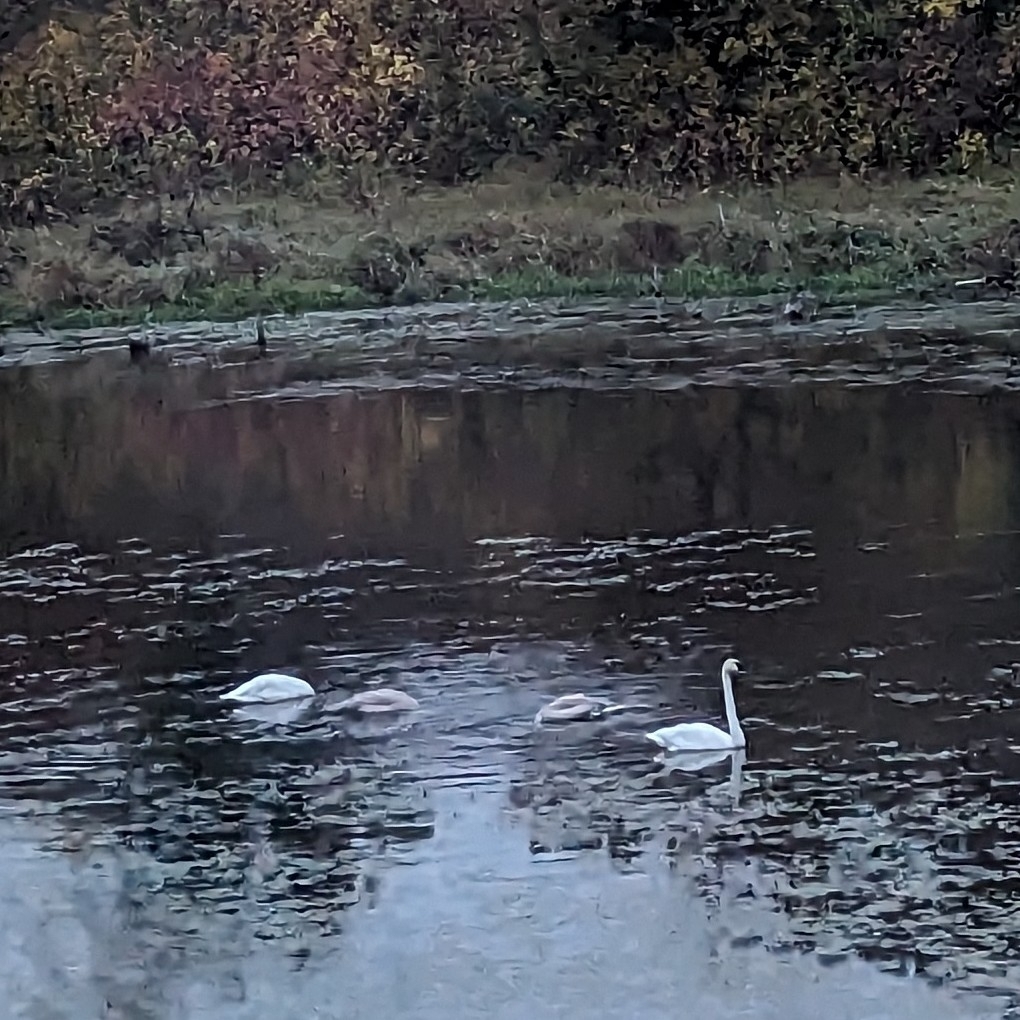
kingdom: Animalia
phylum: Chordata
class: Aves
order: Anseriformes
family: Anatidae
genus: Cygnus
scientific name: Cygnus buccinator
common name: Trumpeter swan
